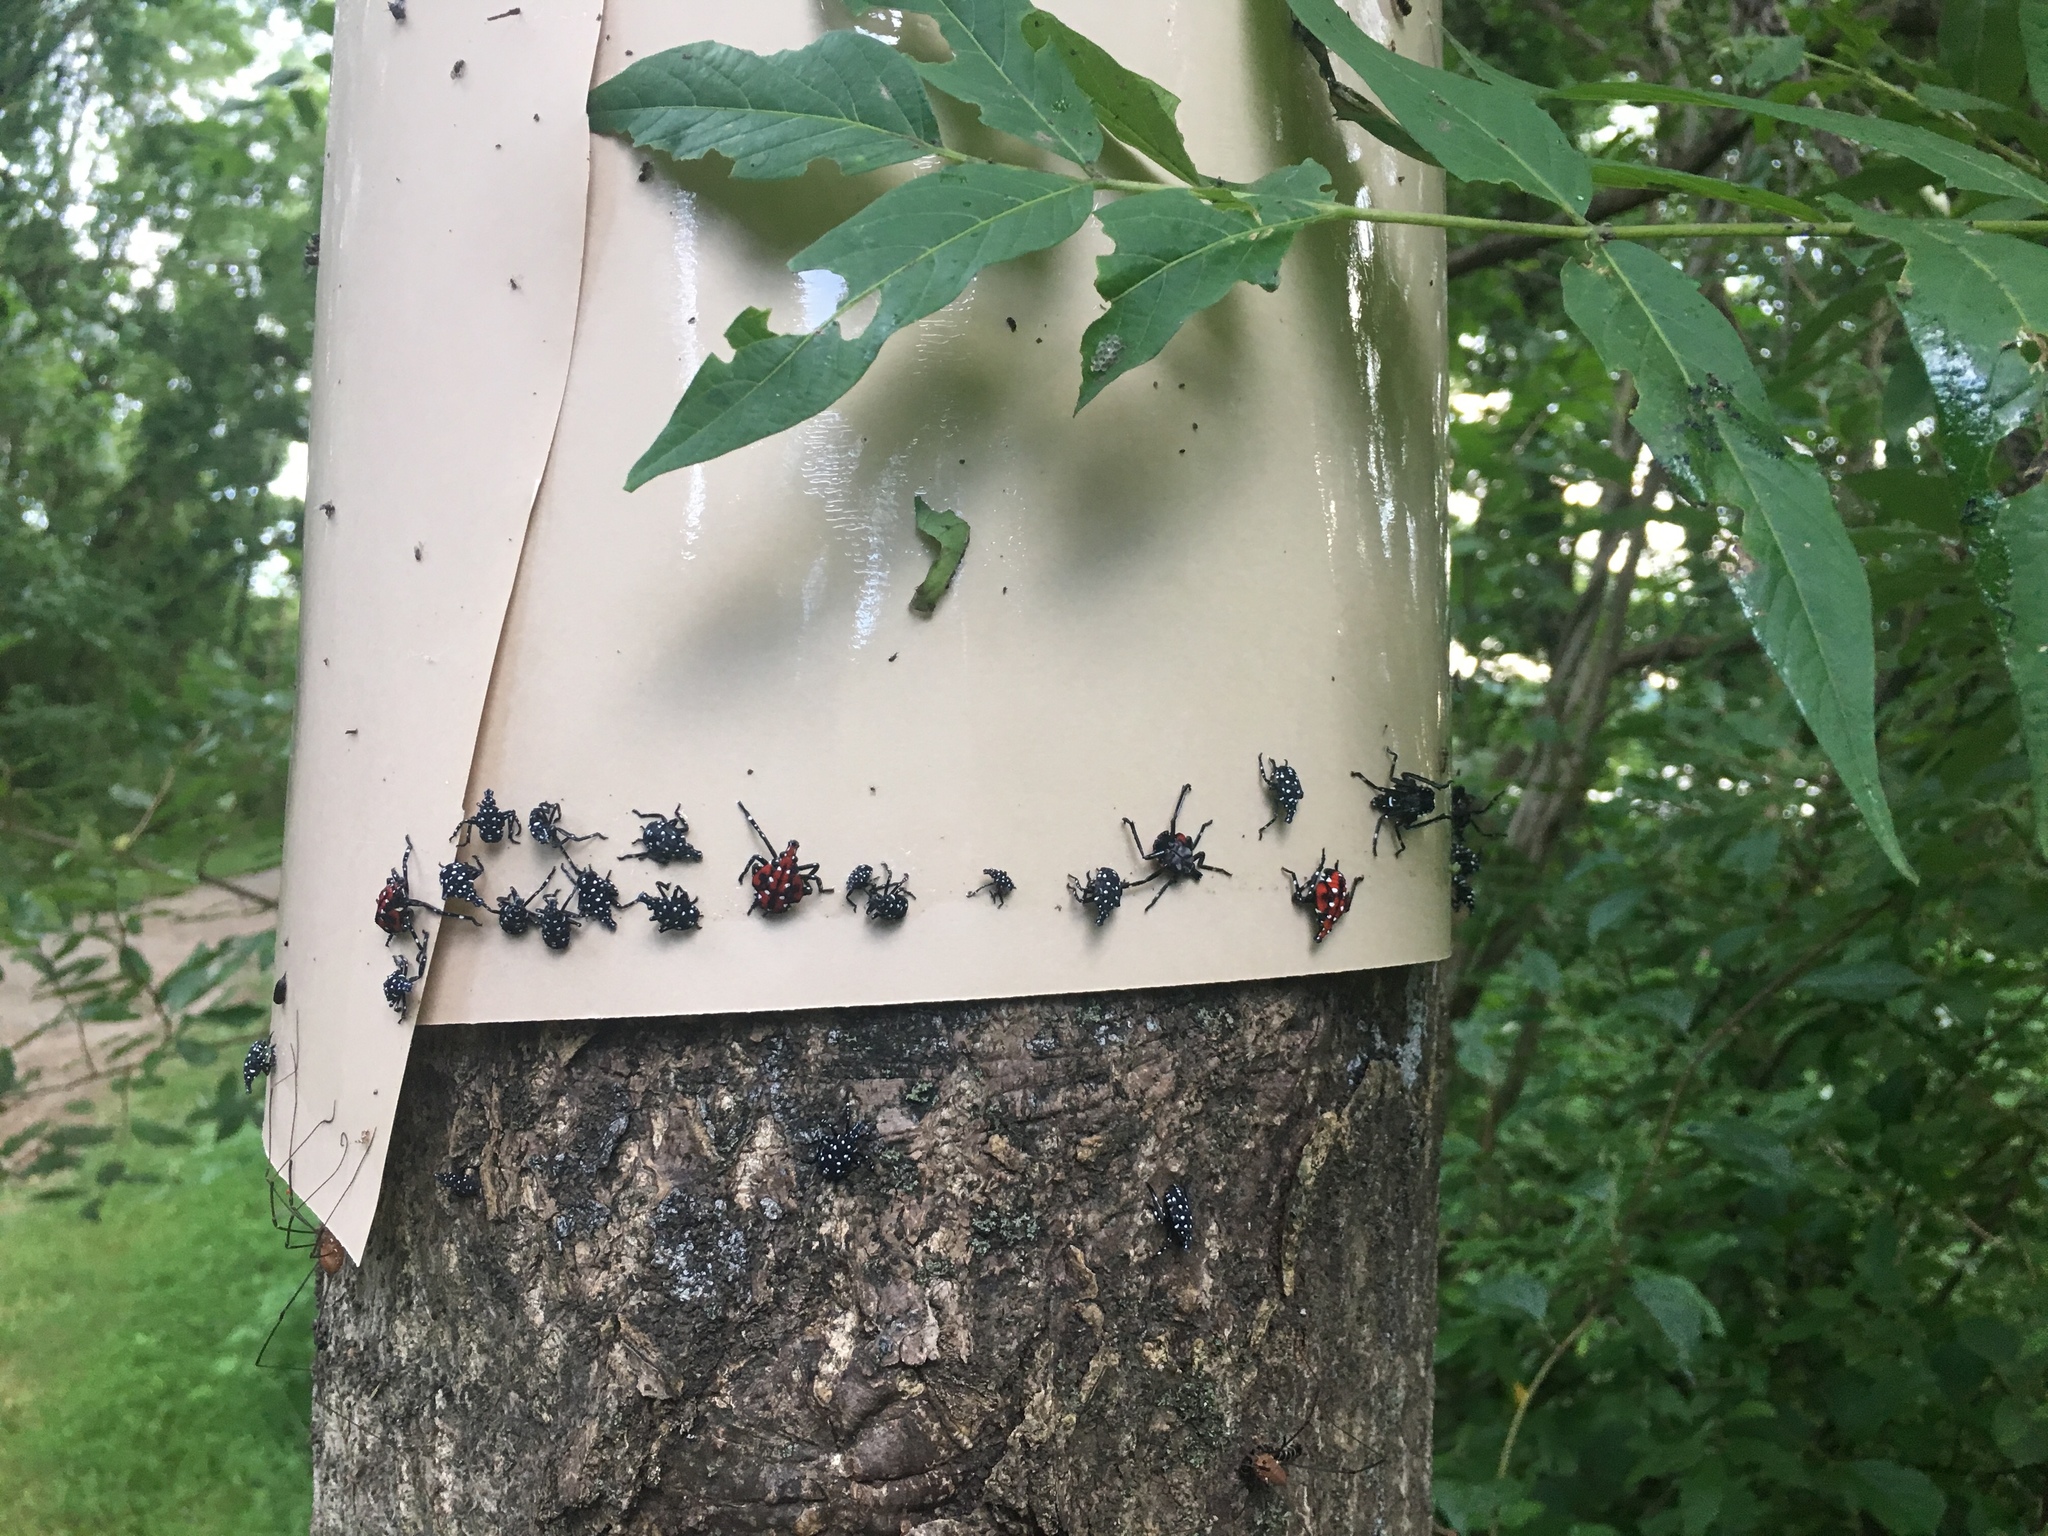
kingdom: Animalia
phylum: Arthropoda
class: Insecta
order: Hemiptera
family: Fulgoridae
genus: Lycorma
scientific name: Lycorma delicatula
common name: Spotted lanternfly
